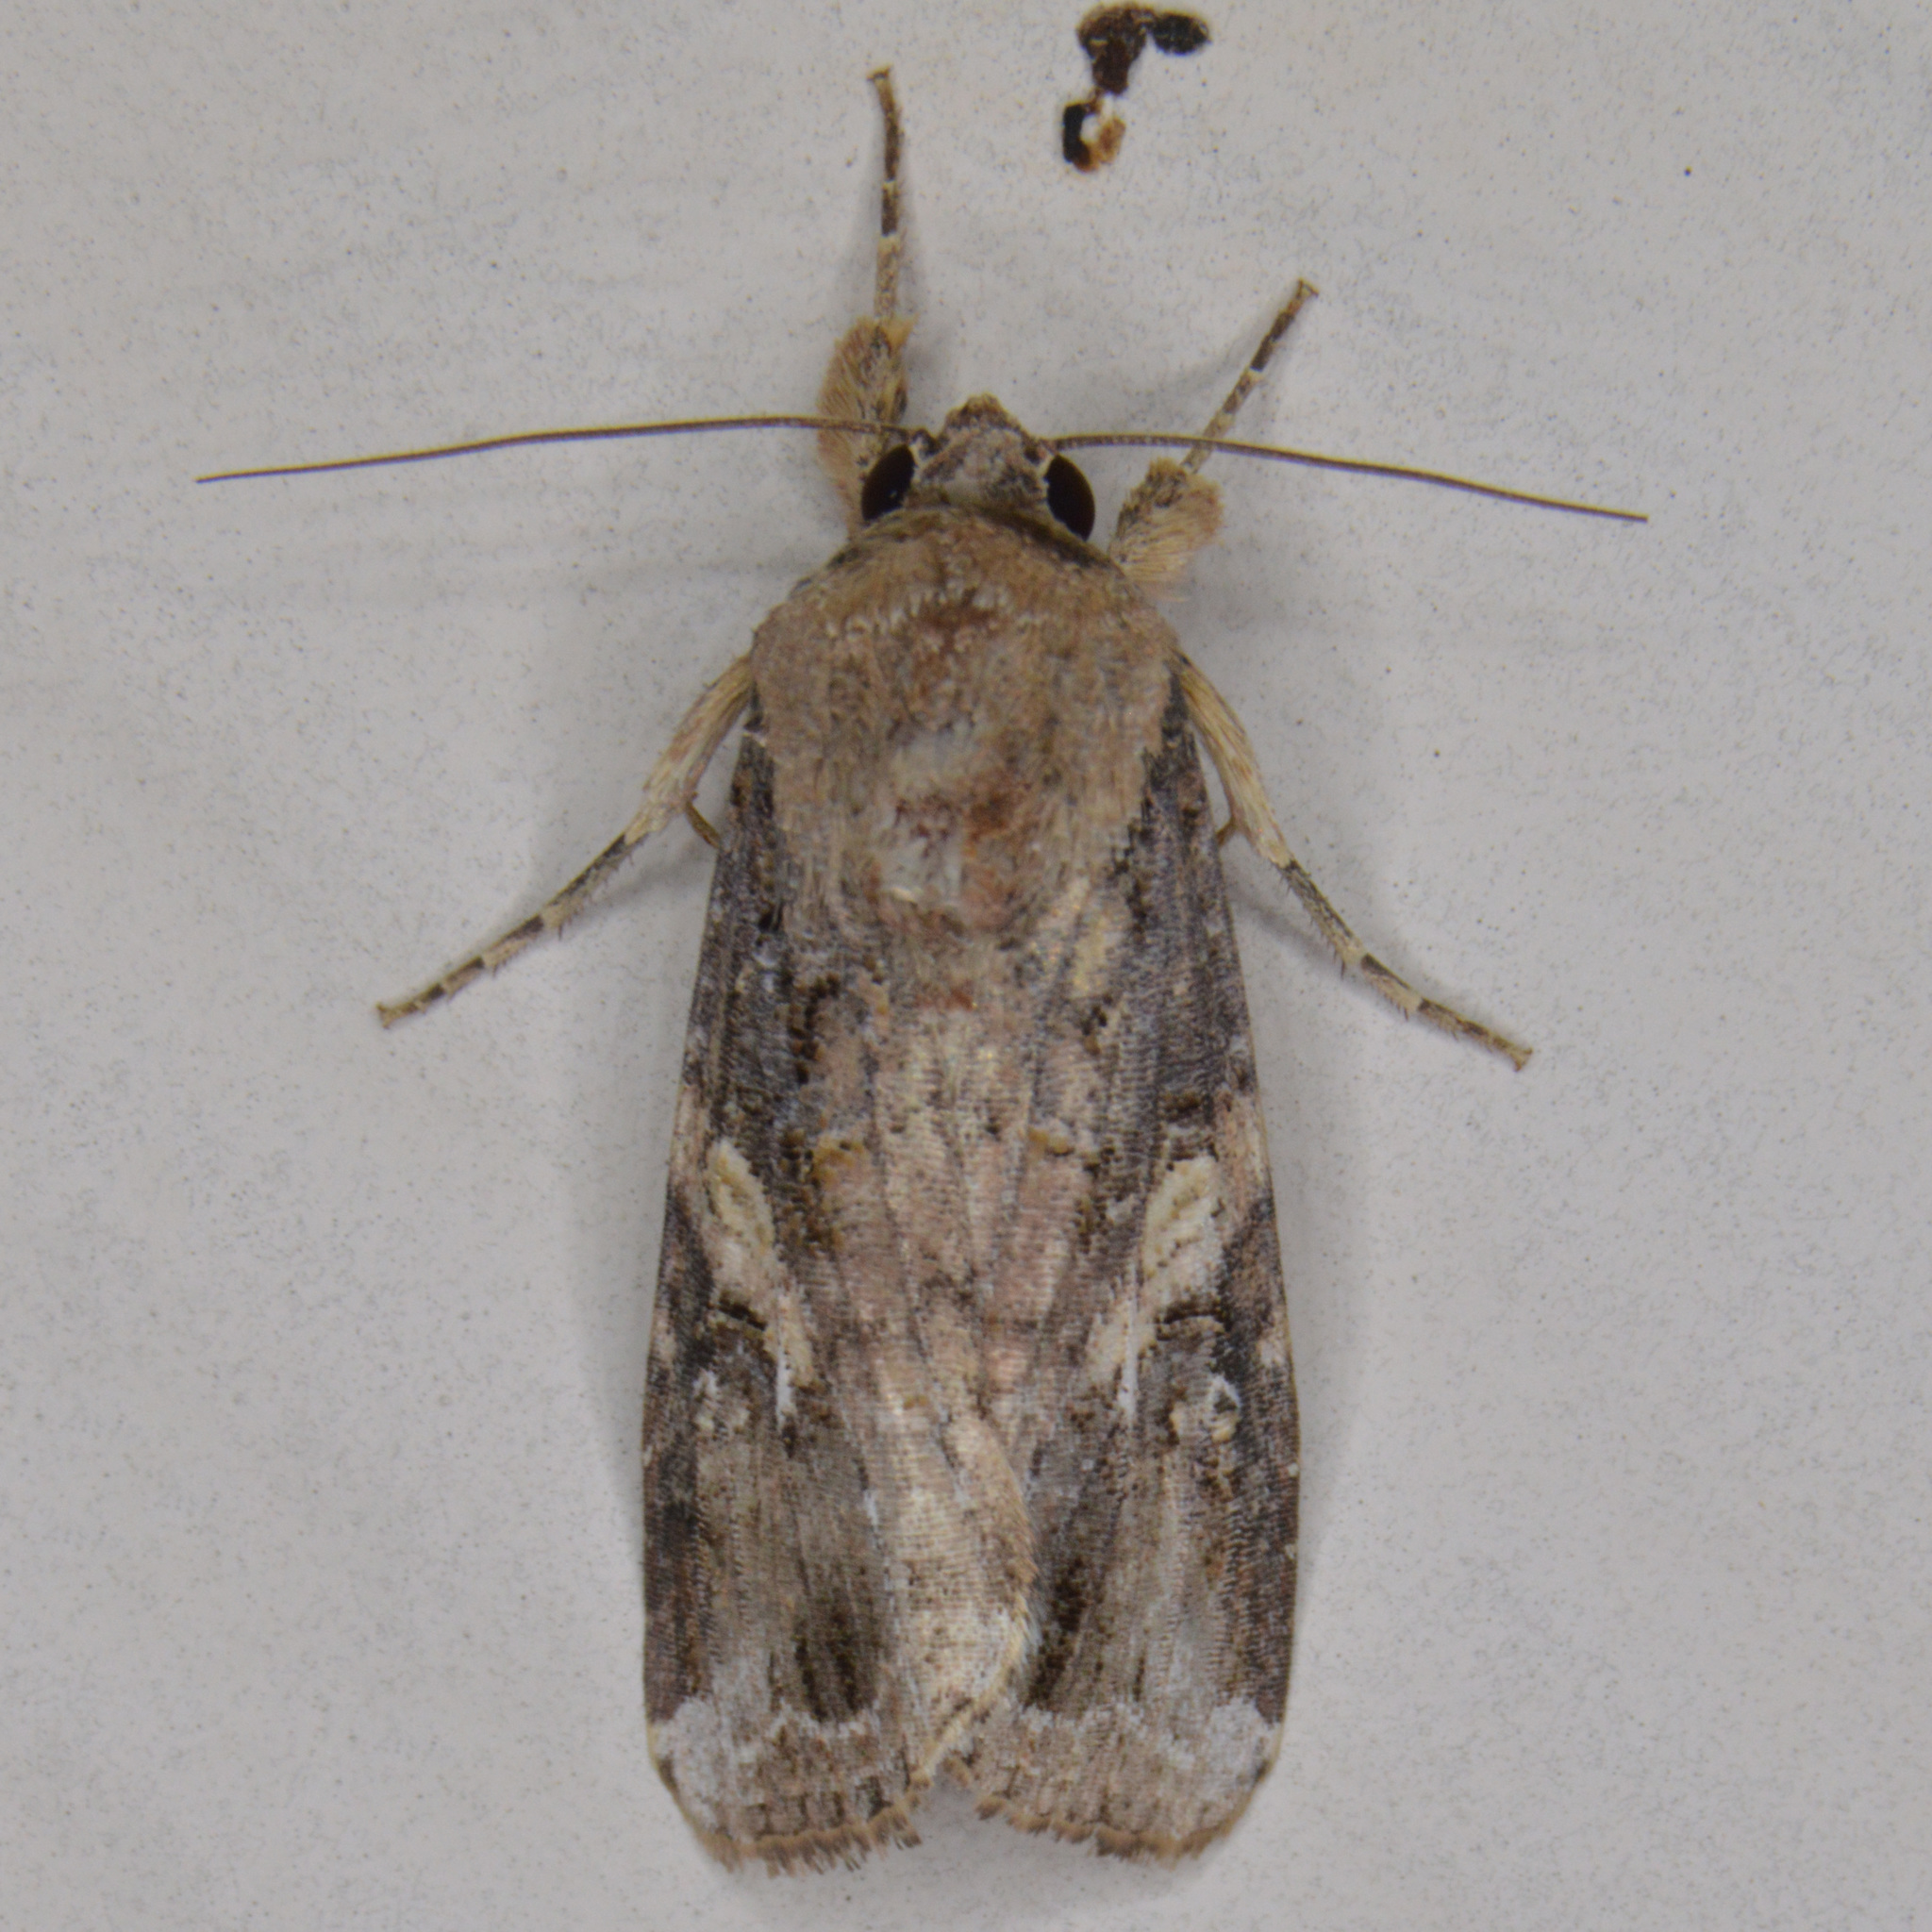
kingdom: Animalia
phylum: Arthropoda
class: Insecta
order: Lepidoptera
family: Noctuidae
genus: Spodoptera
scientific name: Spodoptera frugiperda
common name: Fall armyworm
